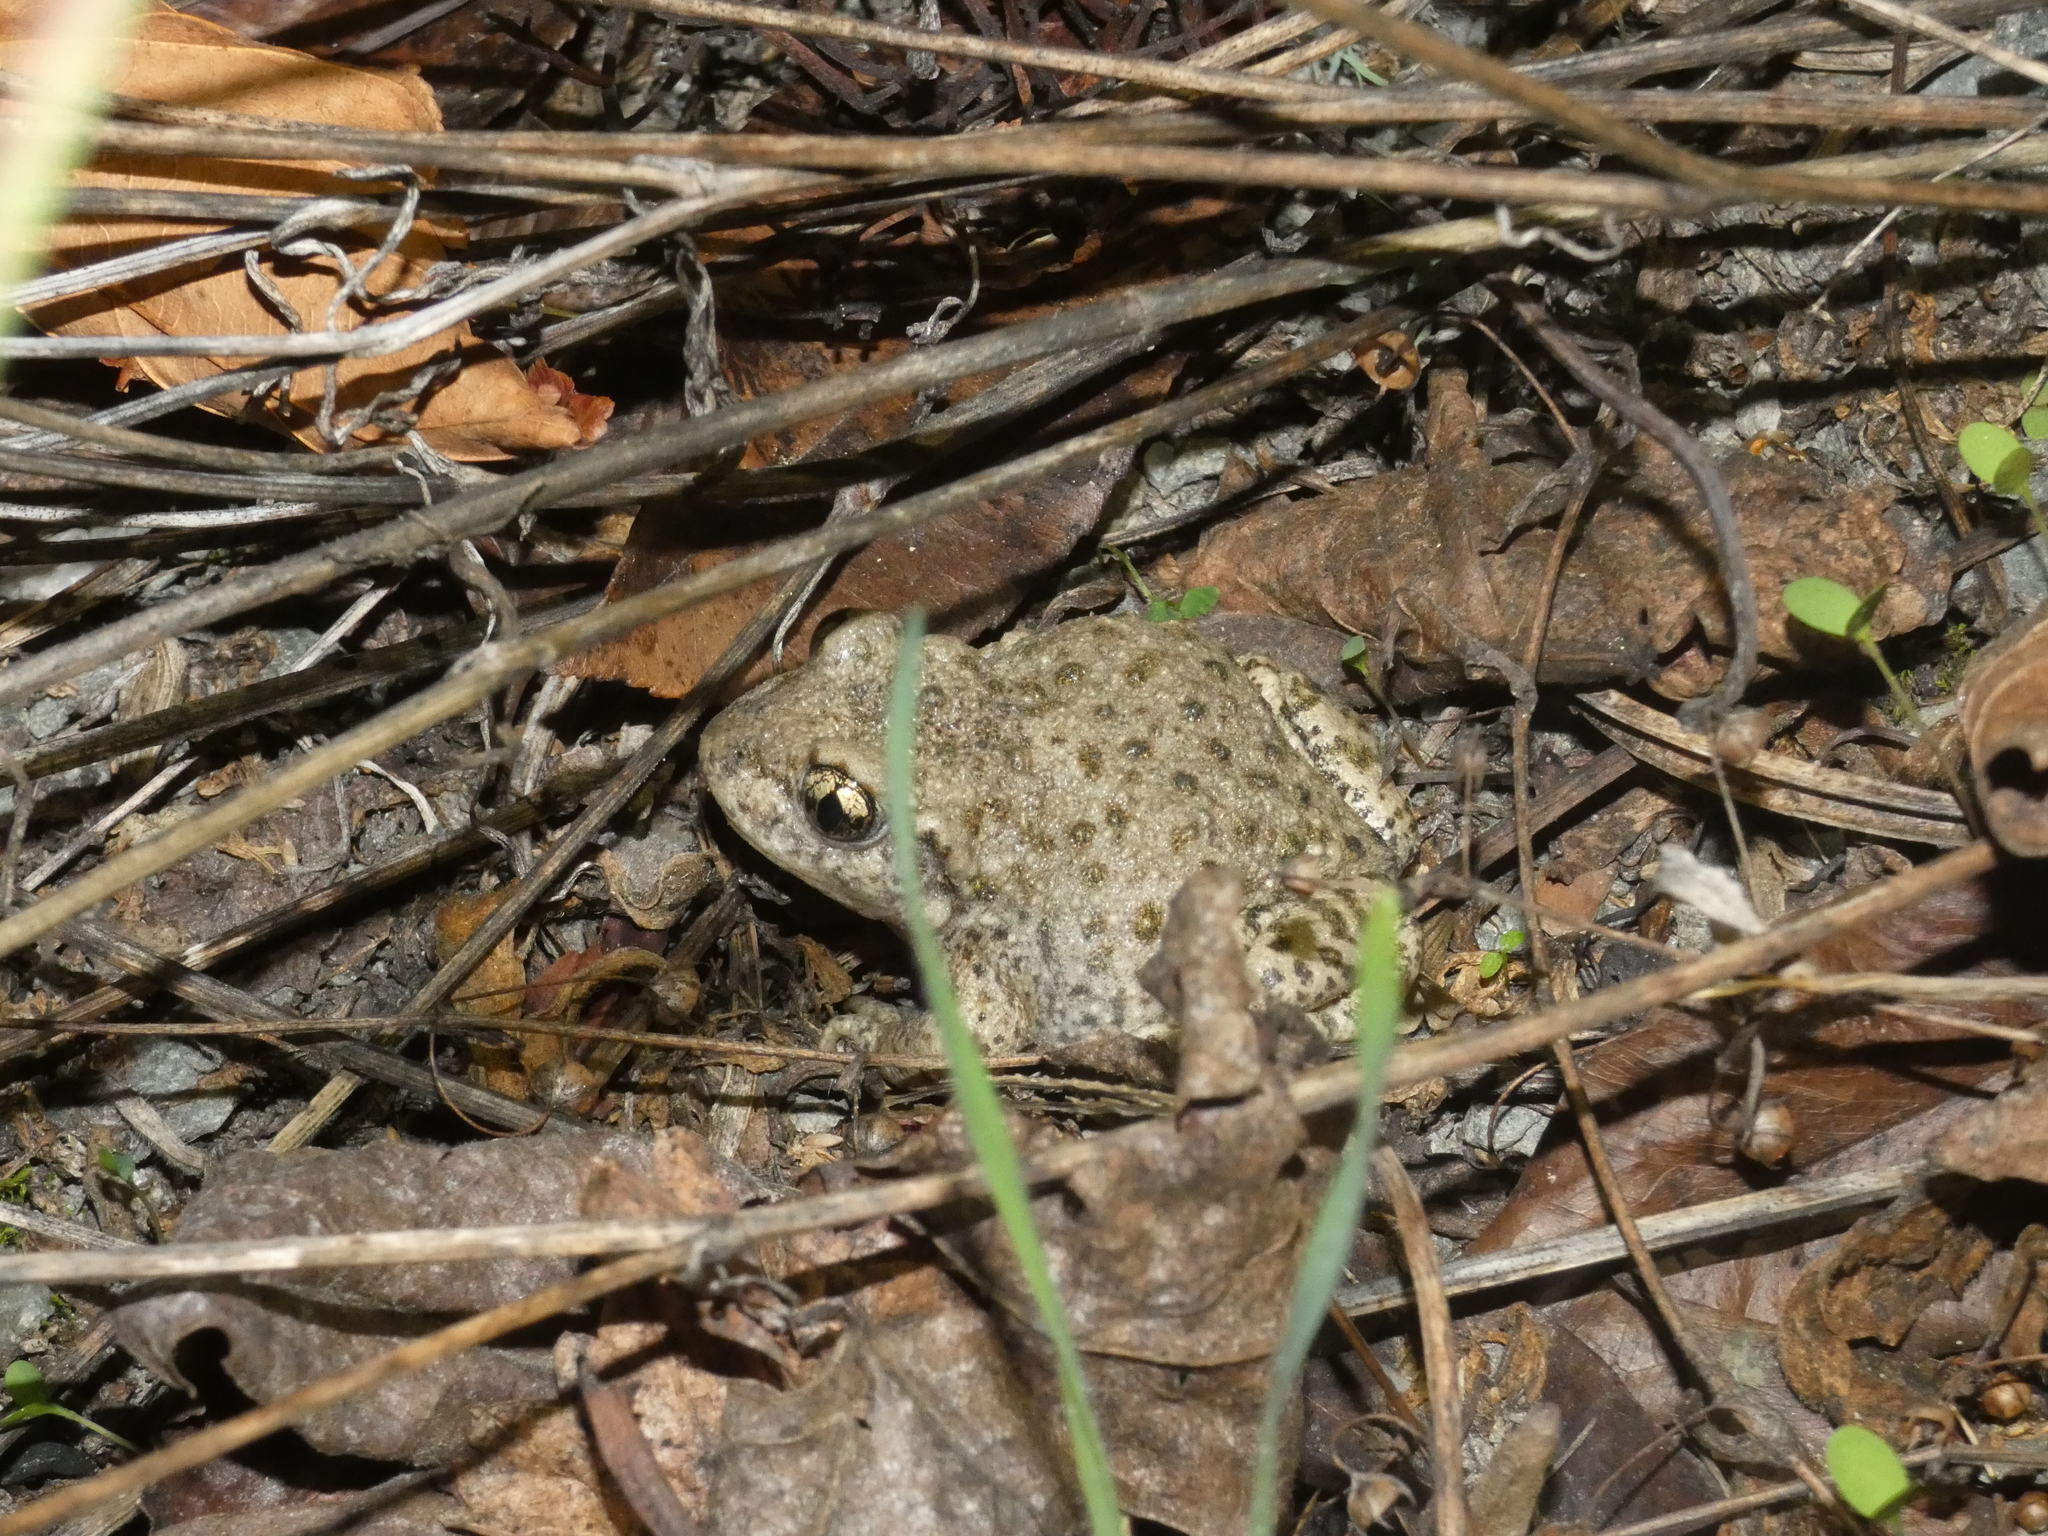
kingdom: Animalia
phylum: Chordata
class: Amphibia
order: Anura
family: Alytidae
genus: Alytes
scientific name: Alytes obstetricans
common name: Midwife toad
